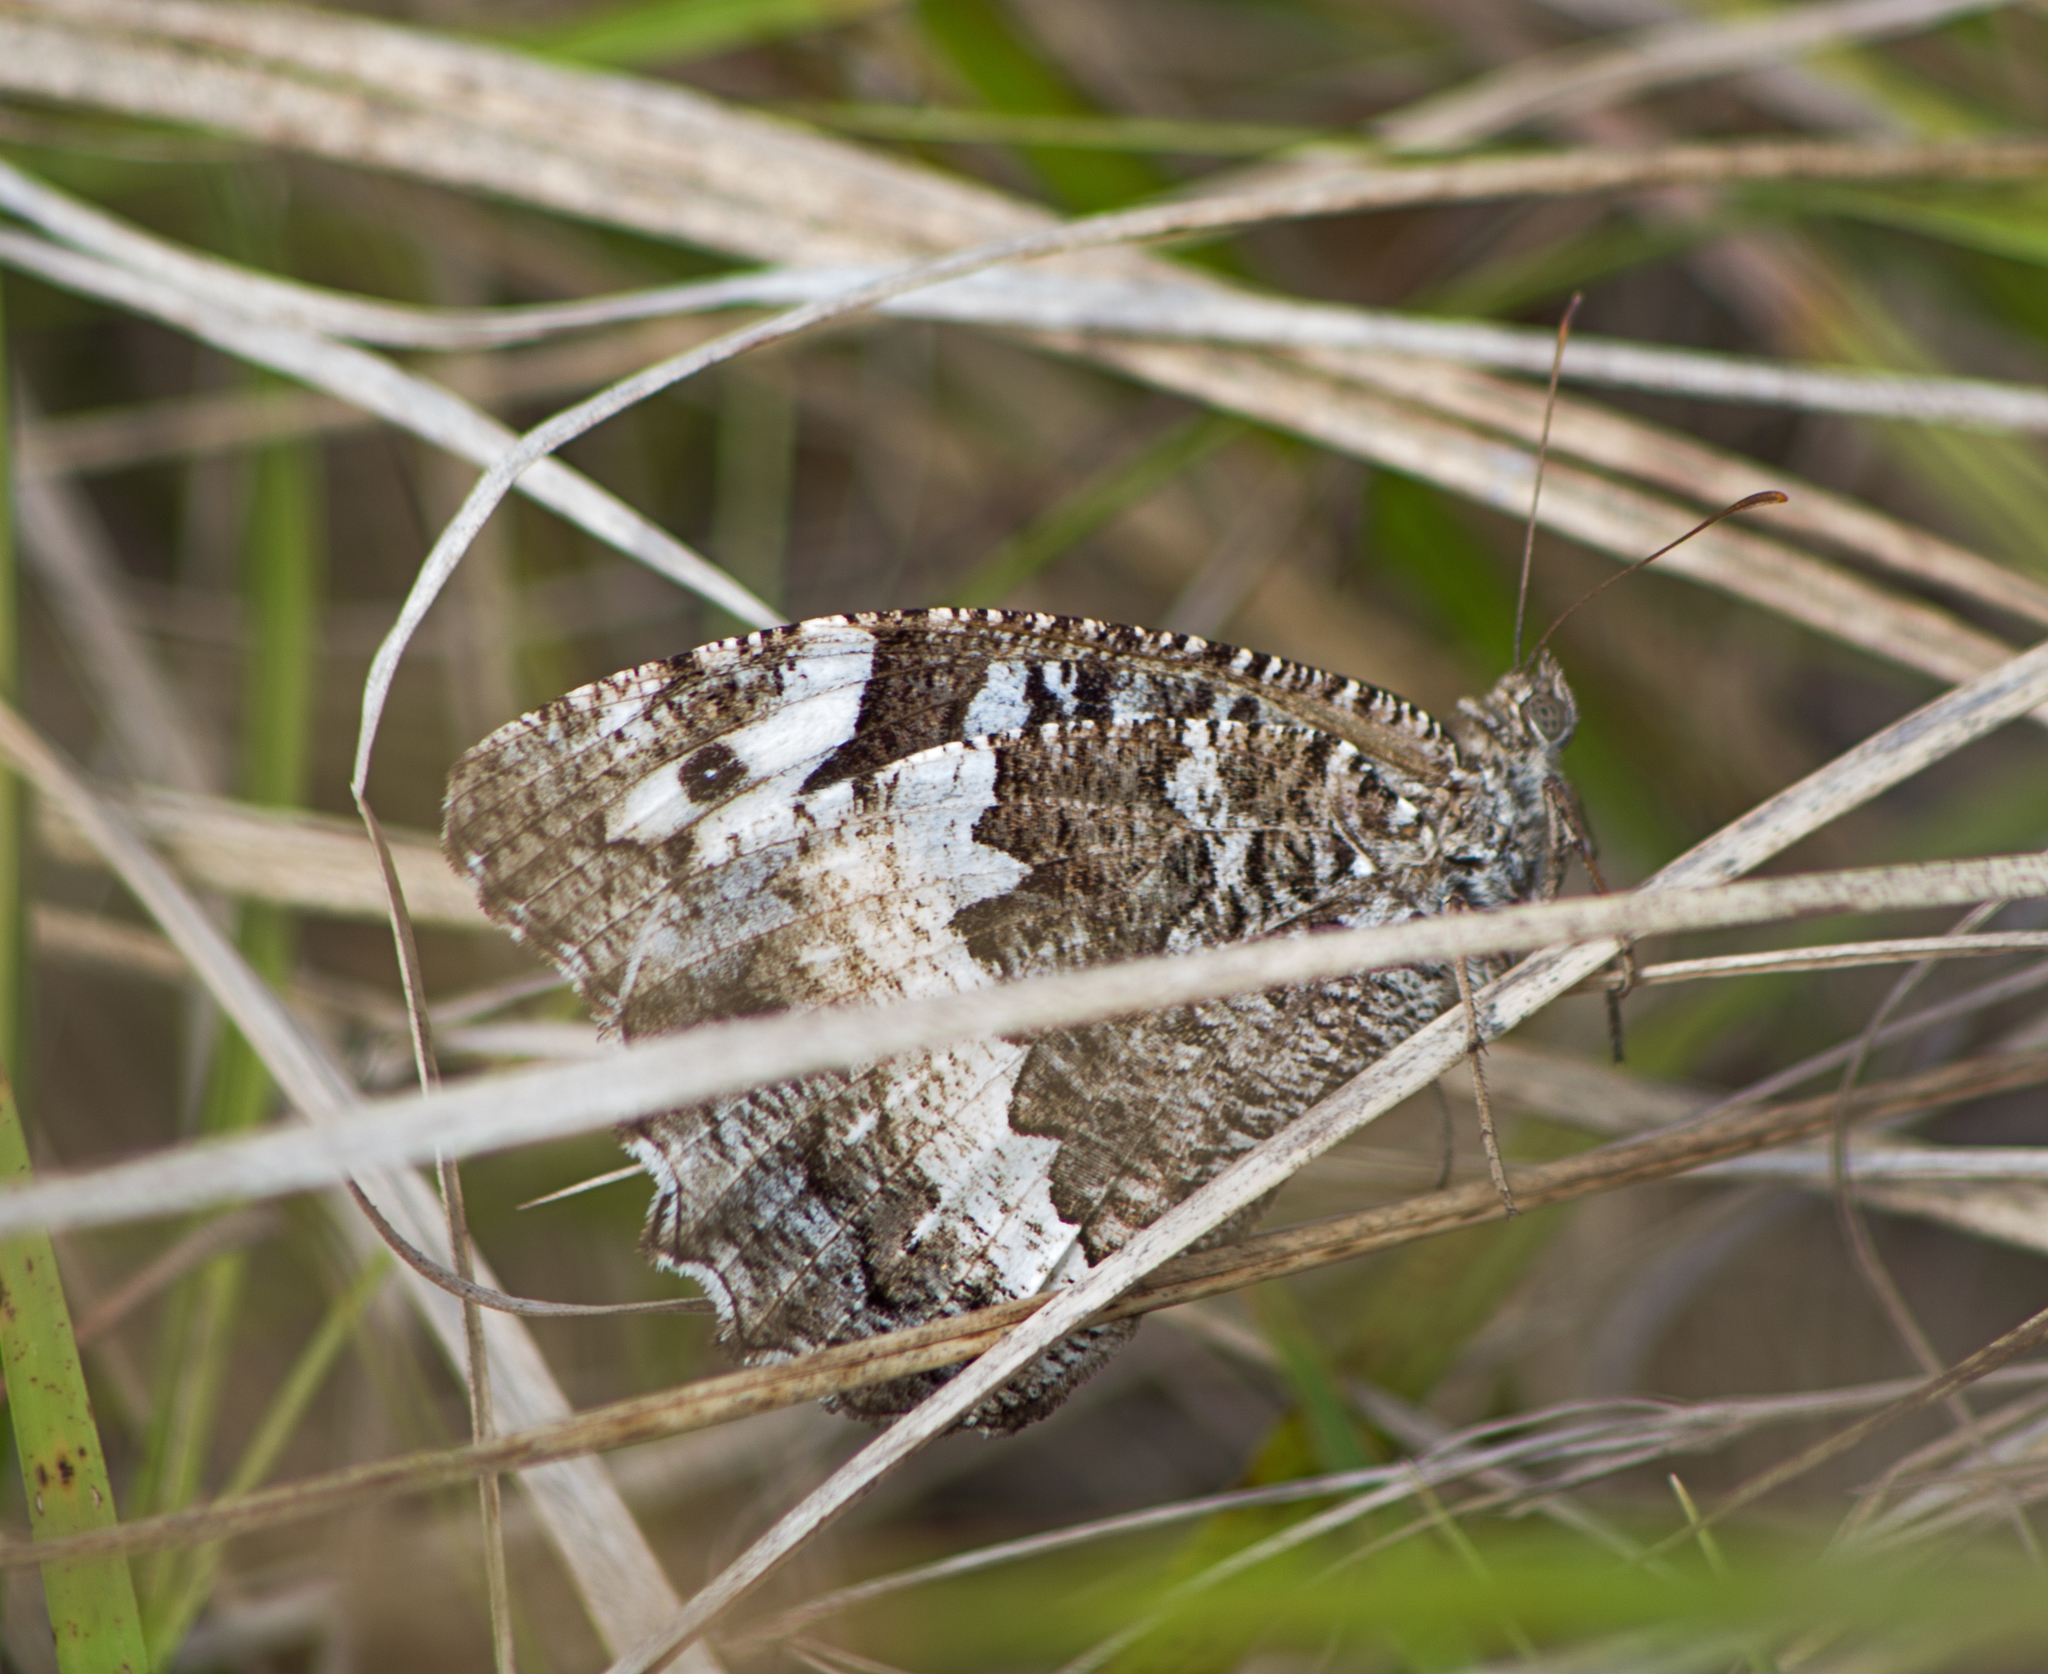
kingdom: Animalia
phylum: Arthropoda
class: Insecta
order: Lepidoptera
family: Lycaenidae
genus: Loweia
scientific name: Loweia tityrus
